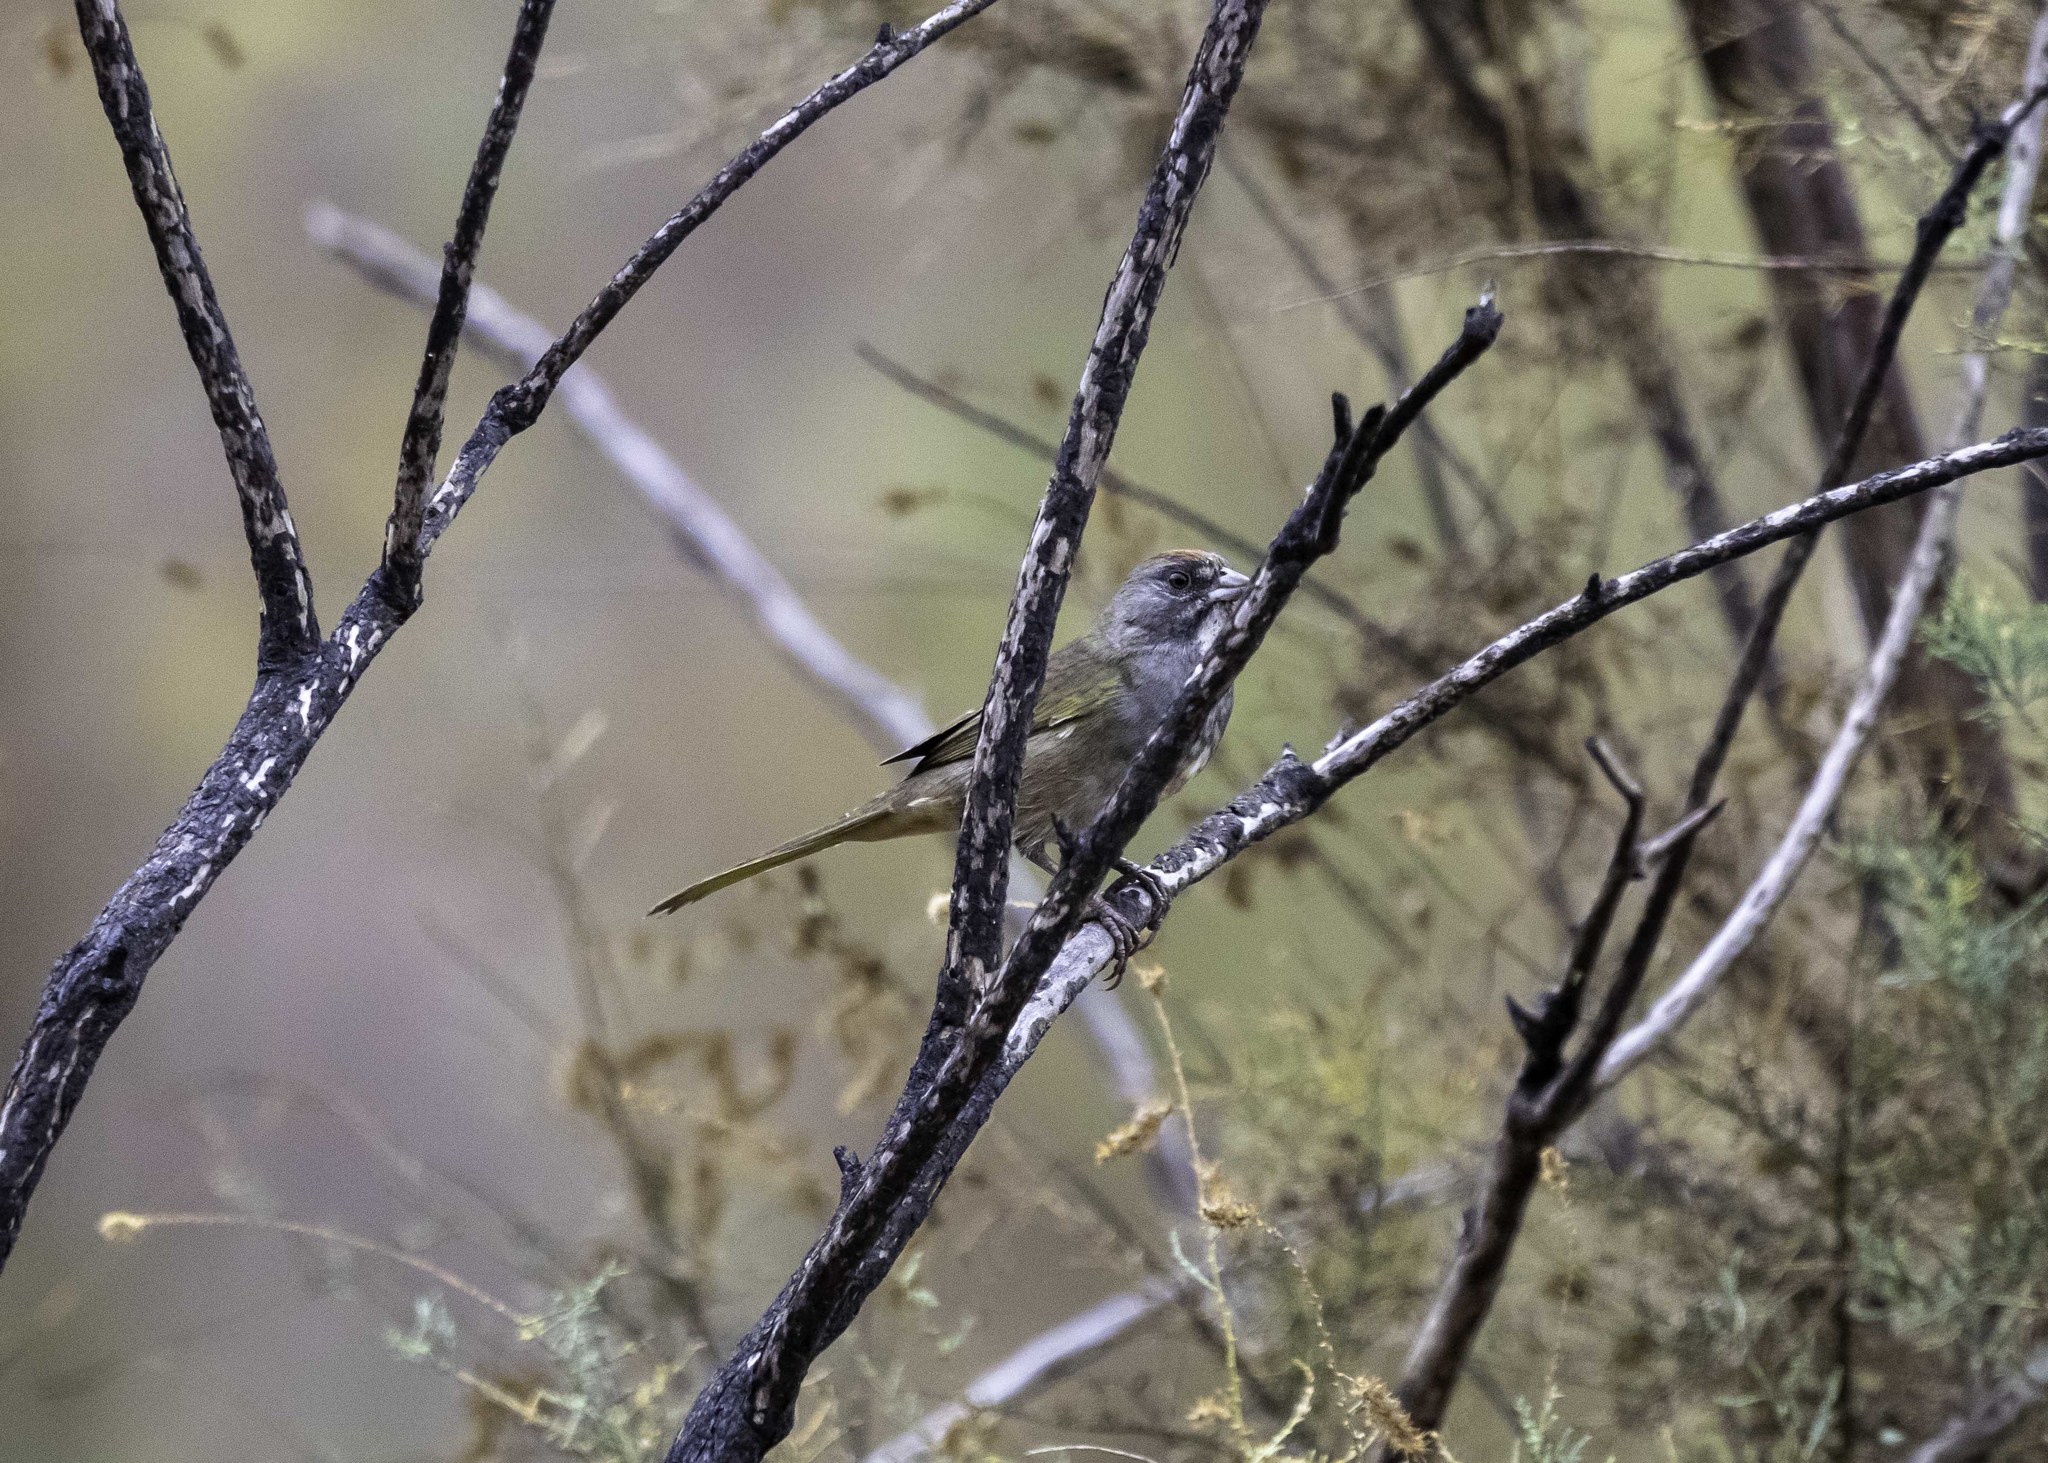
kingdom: Animalia
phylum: Chordata
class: Aves
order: Passeriformes
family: Passerellidae
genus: Pipilo
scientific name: Pipilo chlorurus
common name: Green-tailed towhee
